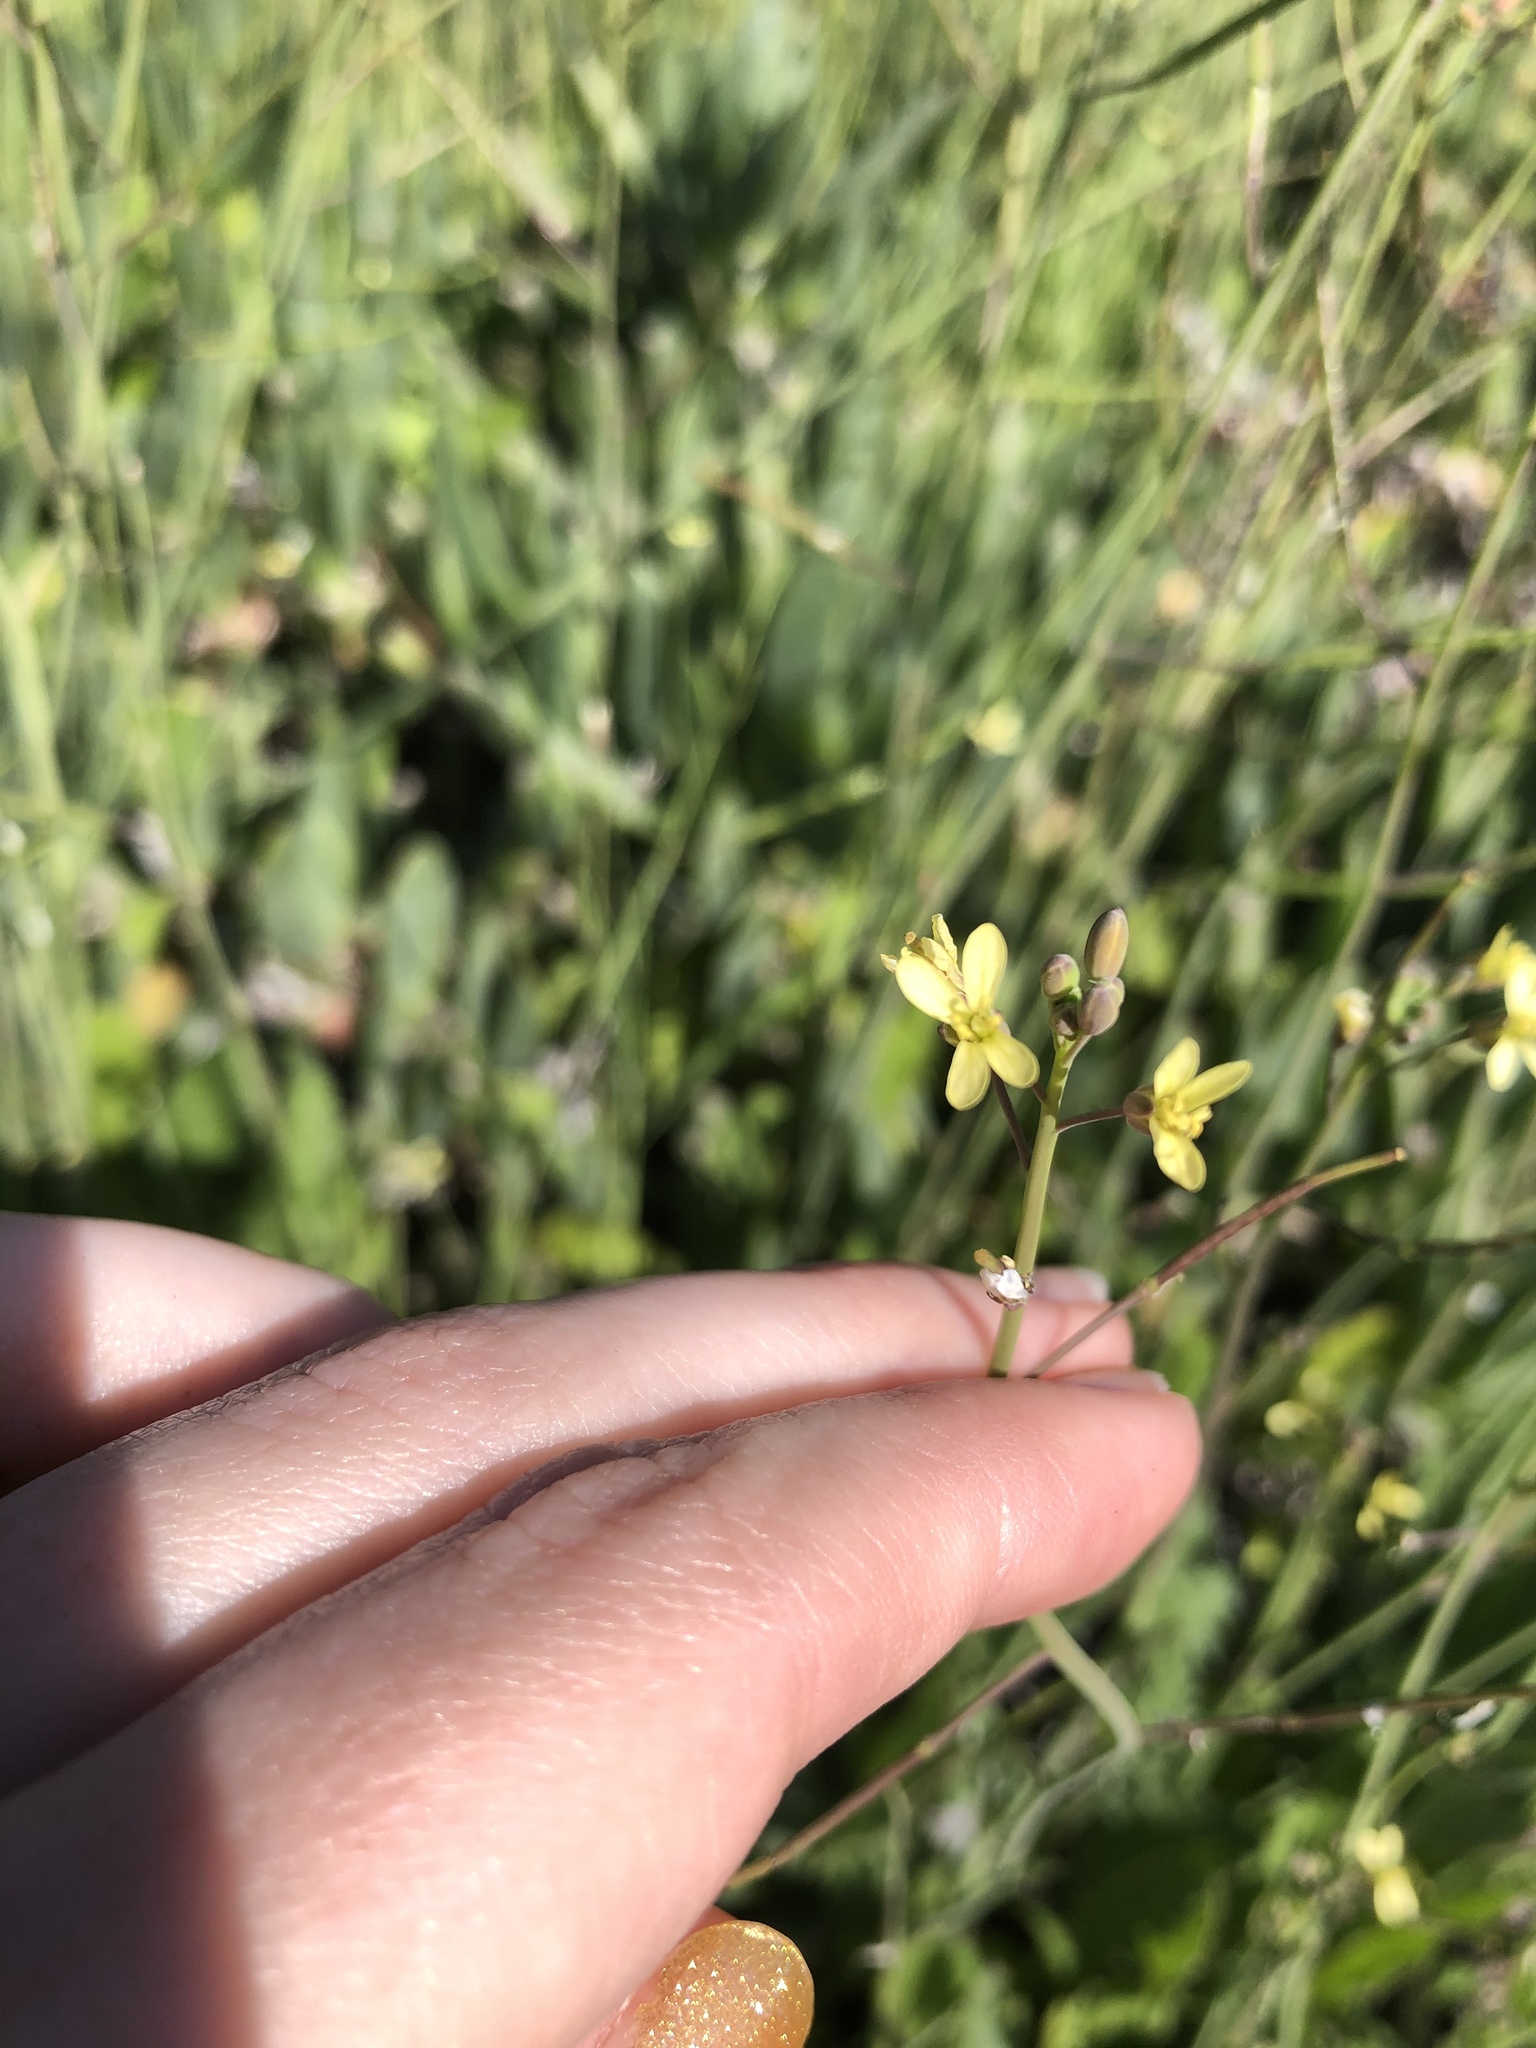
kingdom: Plantae
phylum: Tracheophyta
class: Magnoliopsida
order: Brassicales
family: Brassicaceae
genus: Brassica
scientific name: Brassica tournefortii
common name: Pale cabbage
